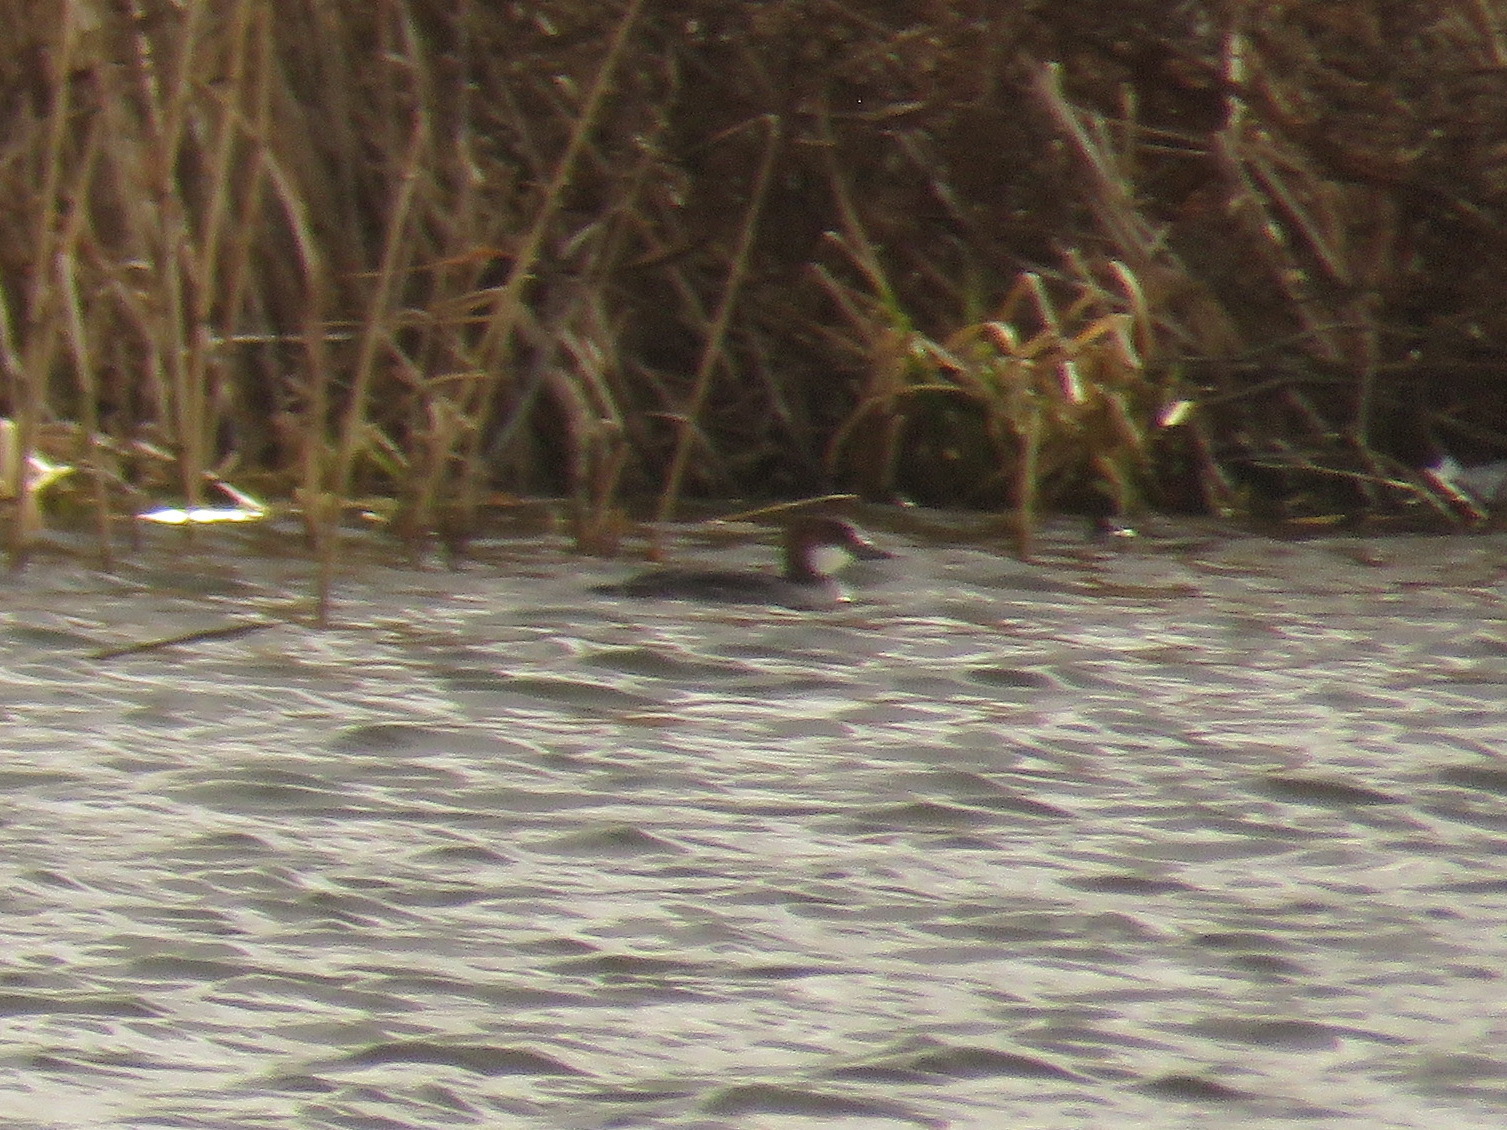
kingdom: Animalia
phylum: Chordata
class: Aves
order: Anseriformes
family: Anatidae
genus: Mergellus
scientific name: Mergellus albellus
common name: Smew
